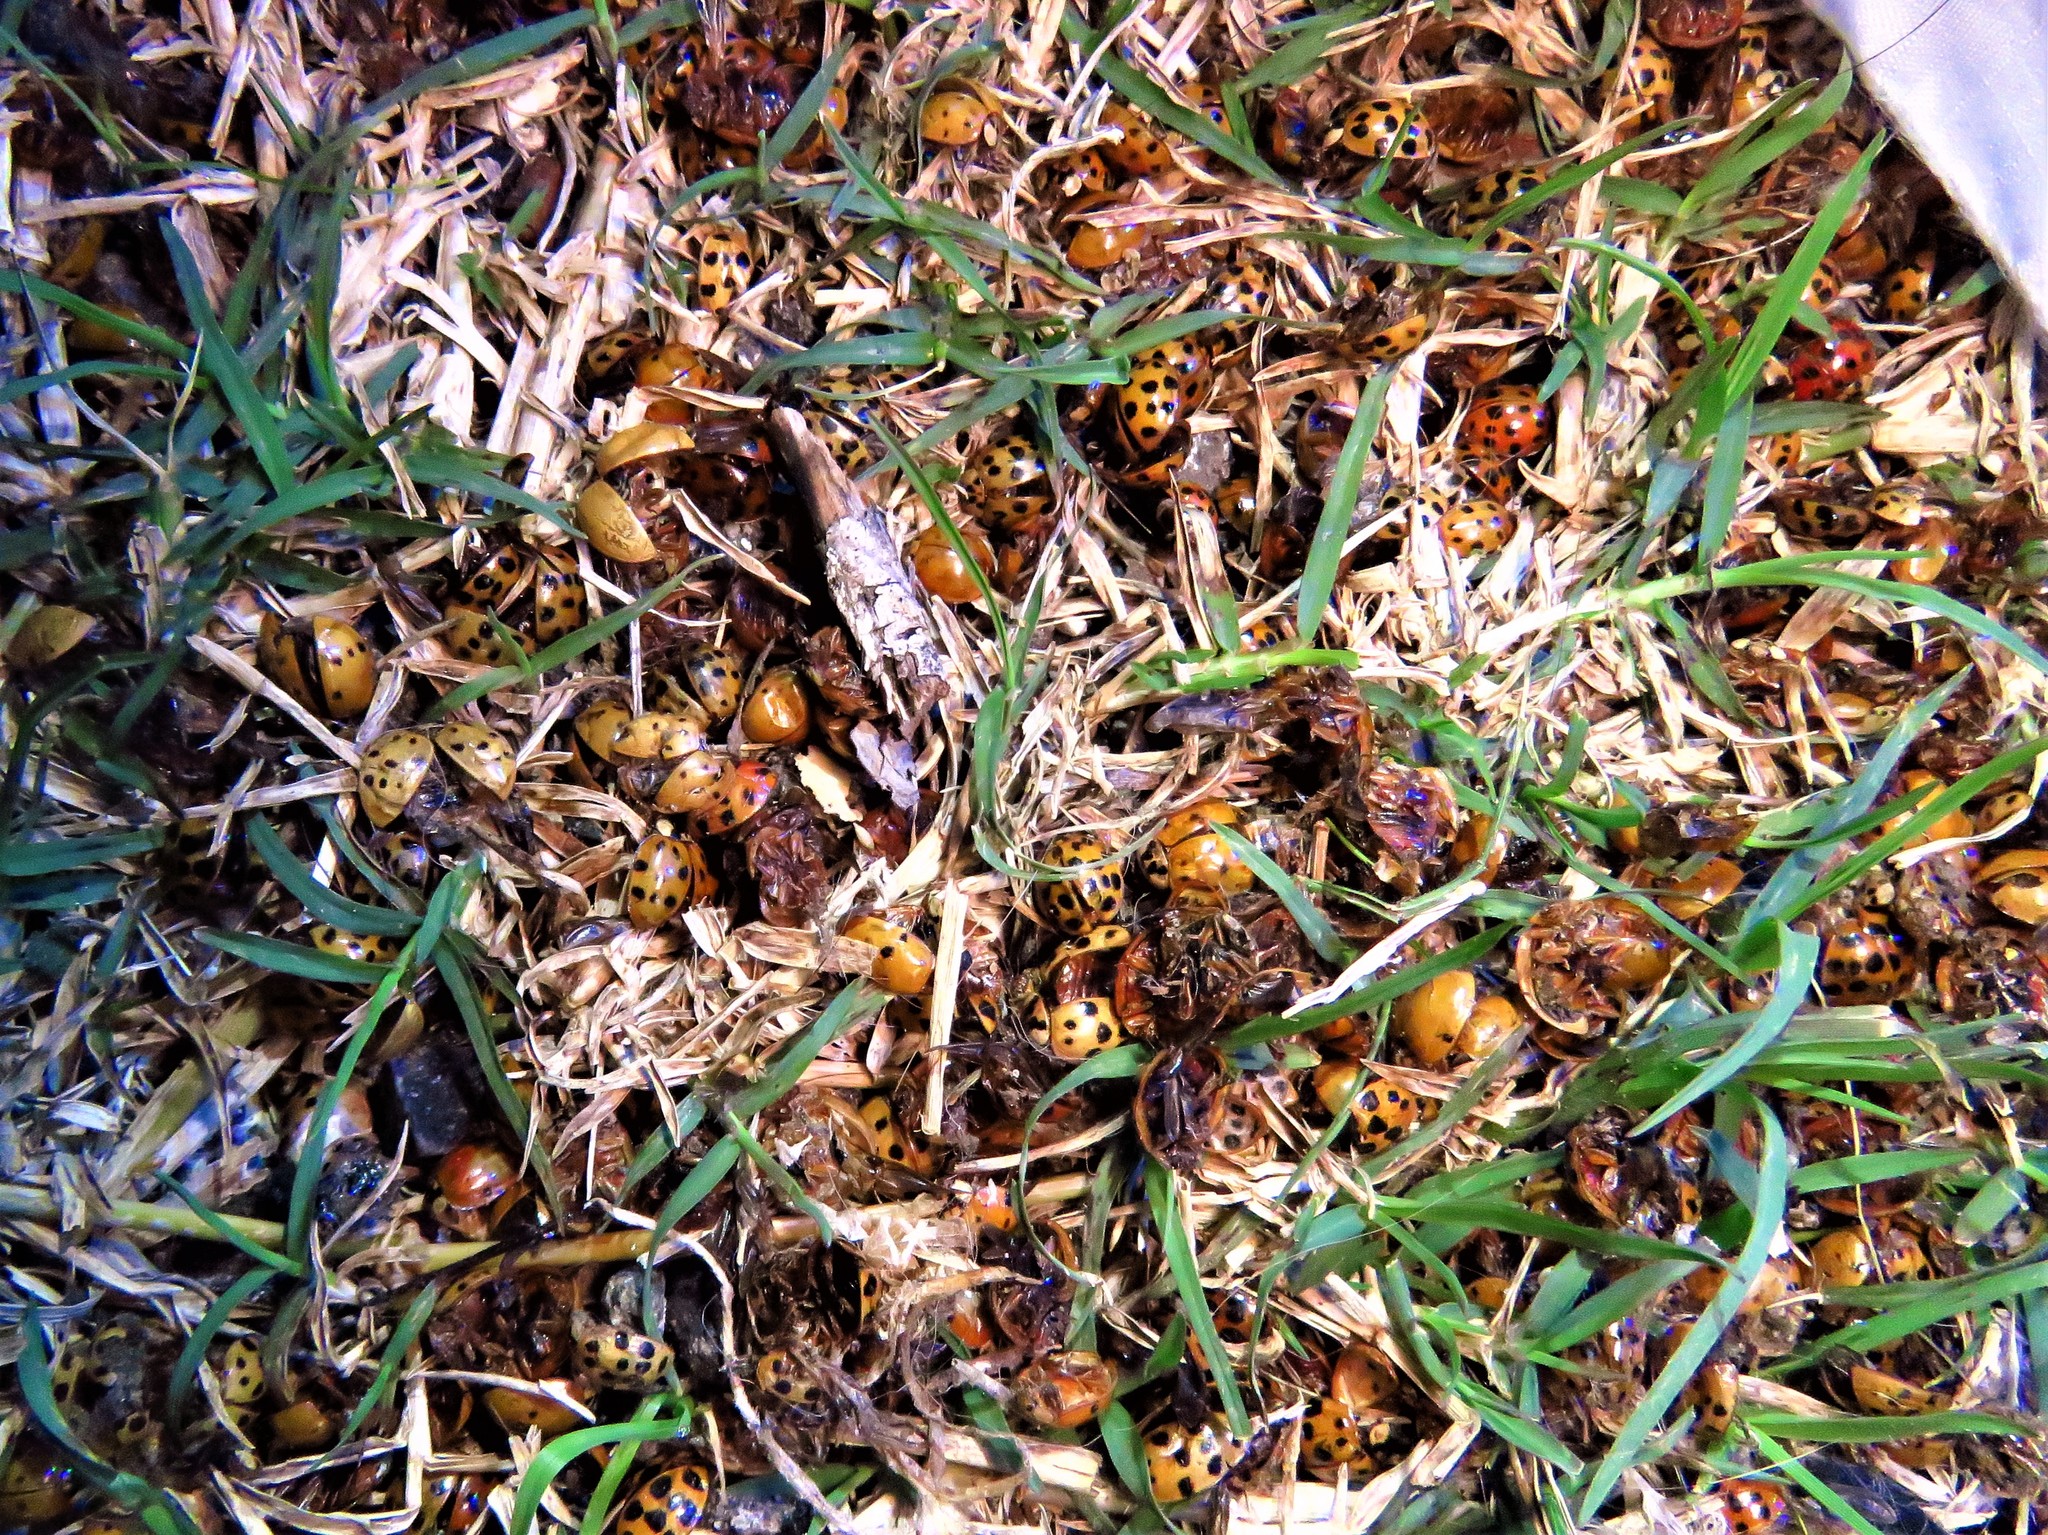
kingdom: Animalia
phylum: Arthropoda
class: Insecta
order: Coleoptera
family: Coccinellidae
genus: Harmonia
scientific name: Harmonia axyridis
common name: Harlequin ladybird
